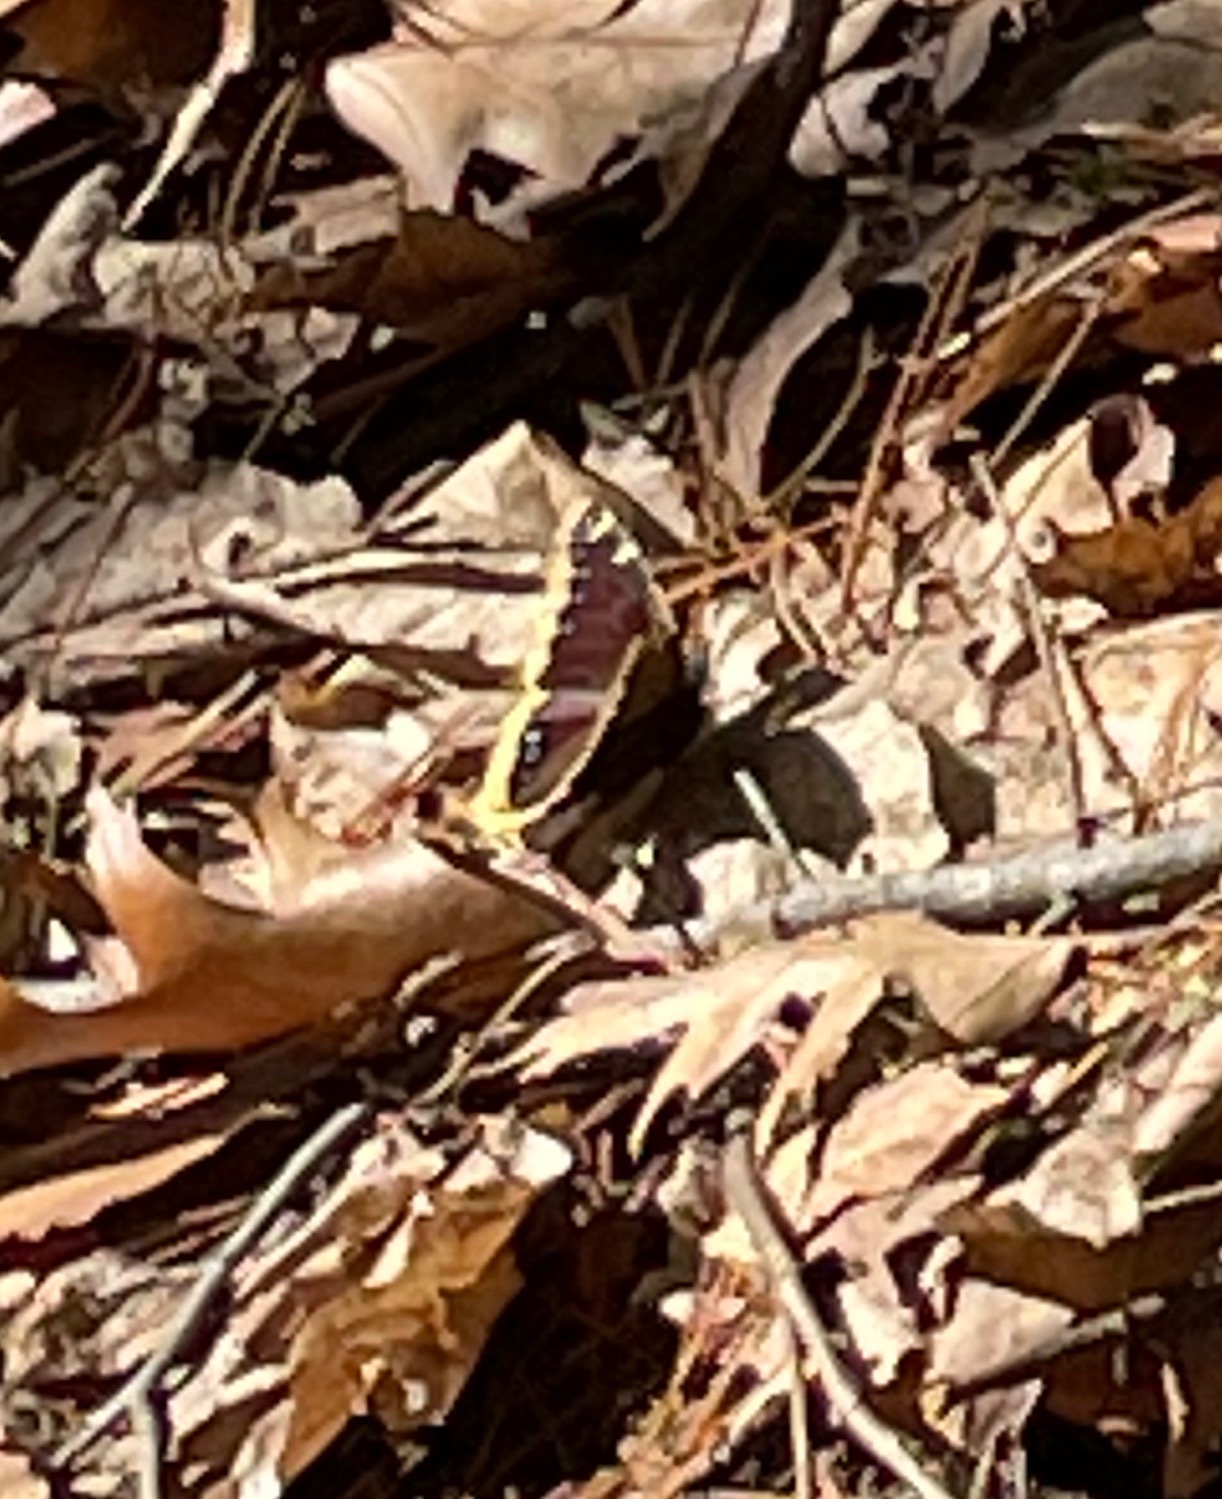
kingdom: Animalia
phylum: Arthropoda
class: Insecta
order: Lepidoptera
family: Nymphalidae
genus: Nymphalis
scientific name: Nymphalis antiopa
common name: Camberwell beauty
